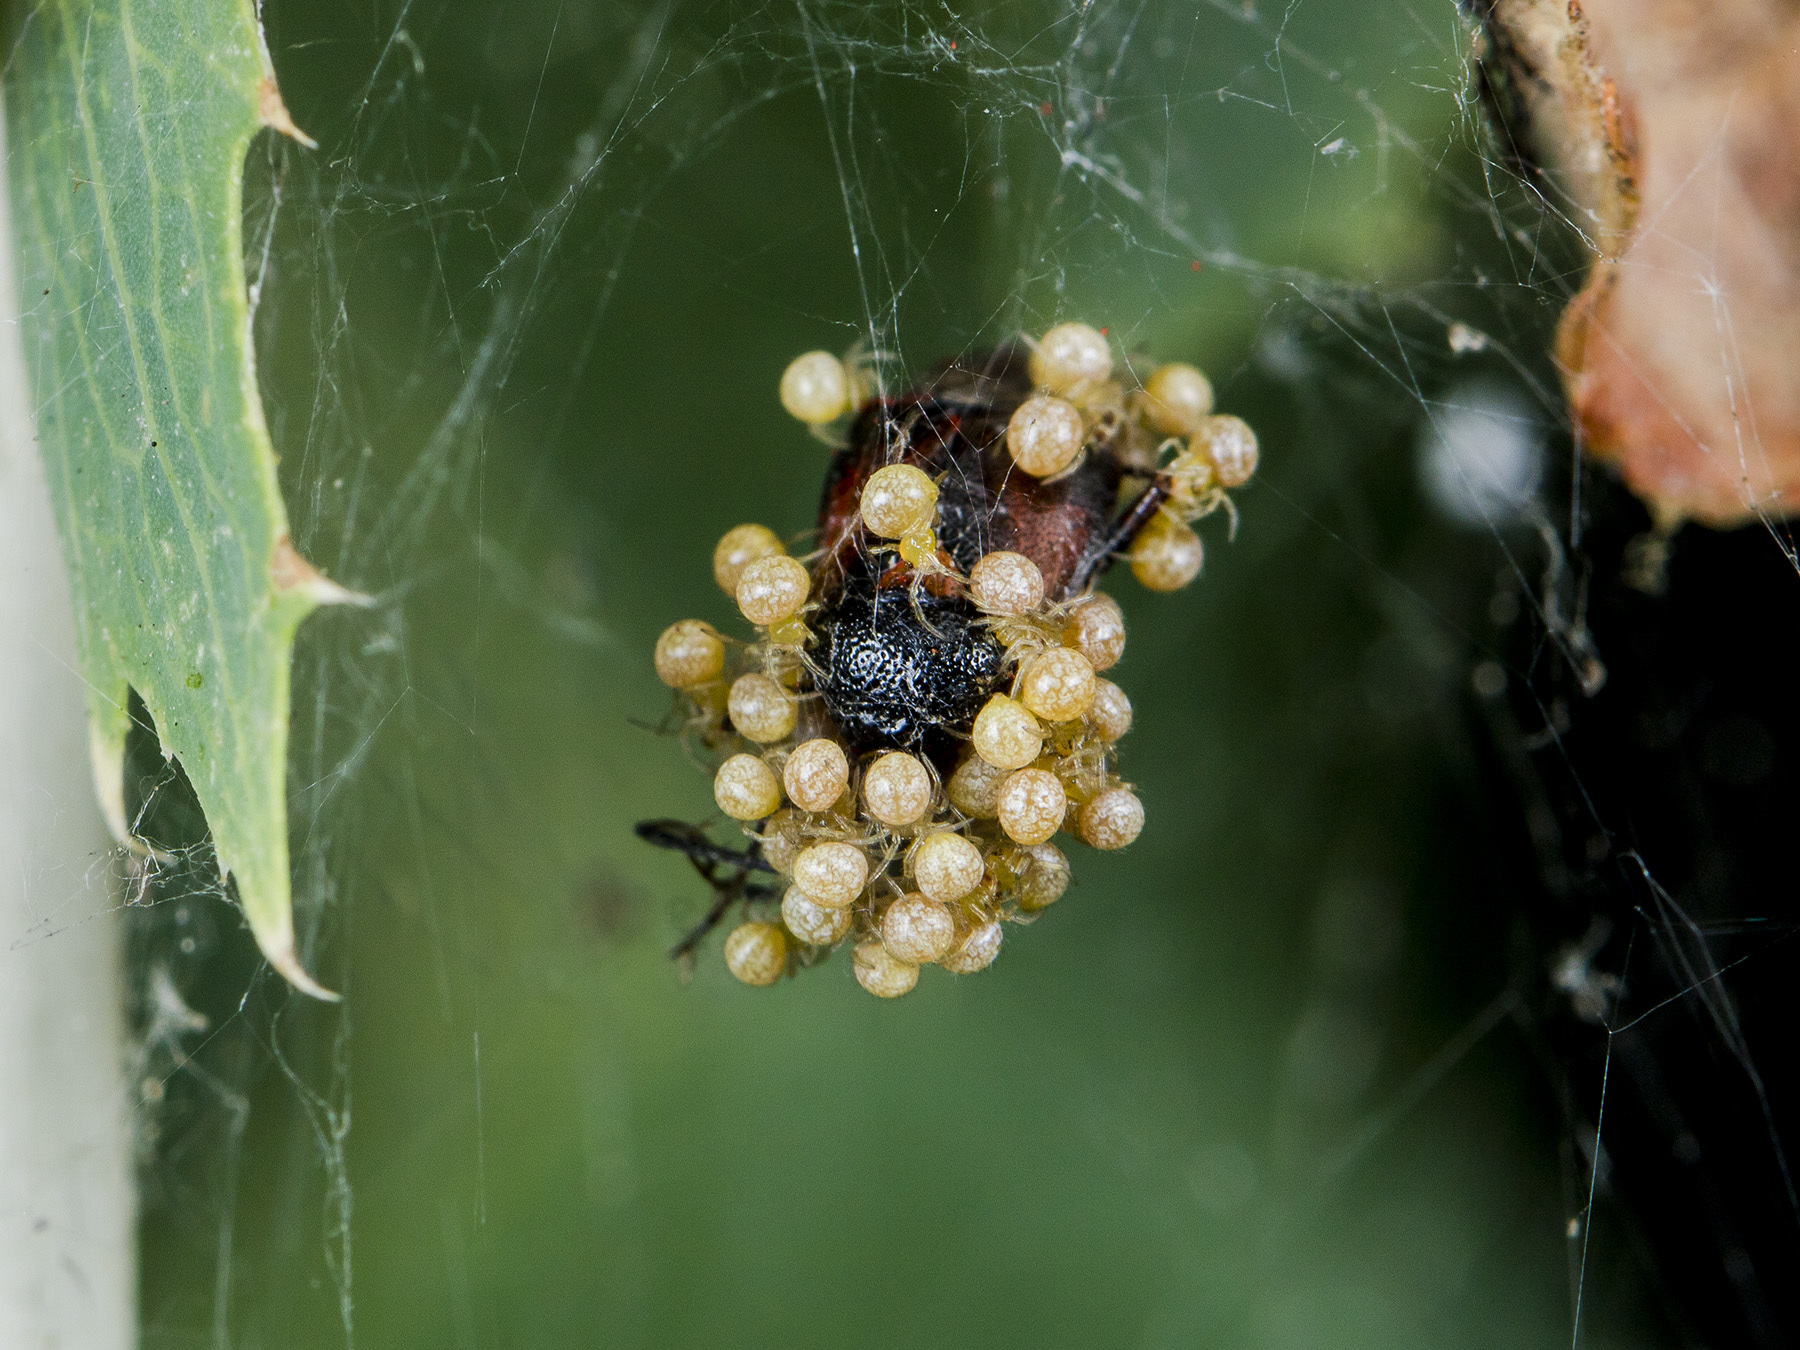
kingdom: Animalia
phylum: Arthropoda
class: Arachnida
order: Araneae
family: Theridiidae
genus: Phylloneta
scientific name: Phylloneta impressa
